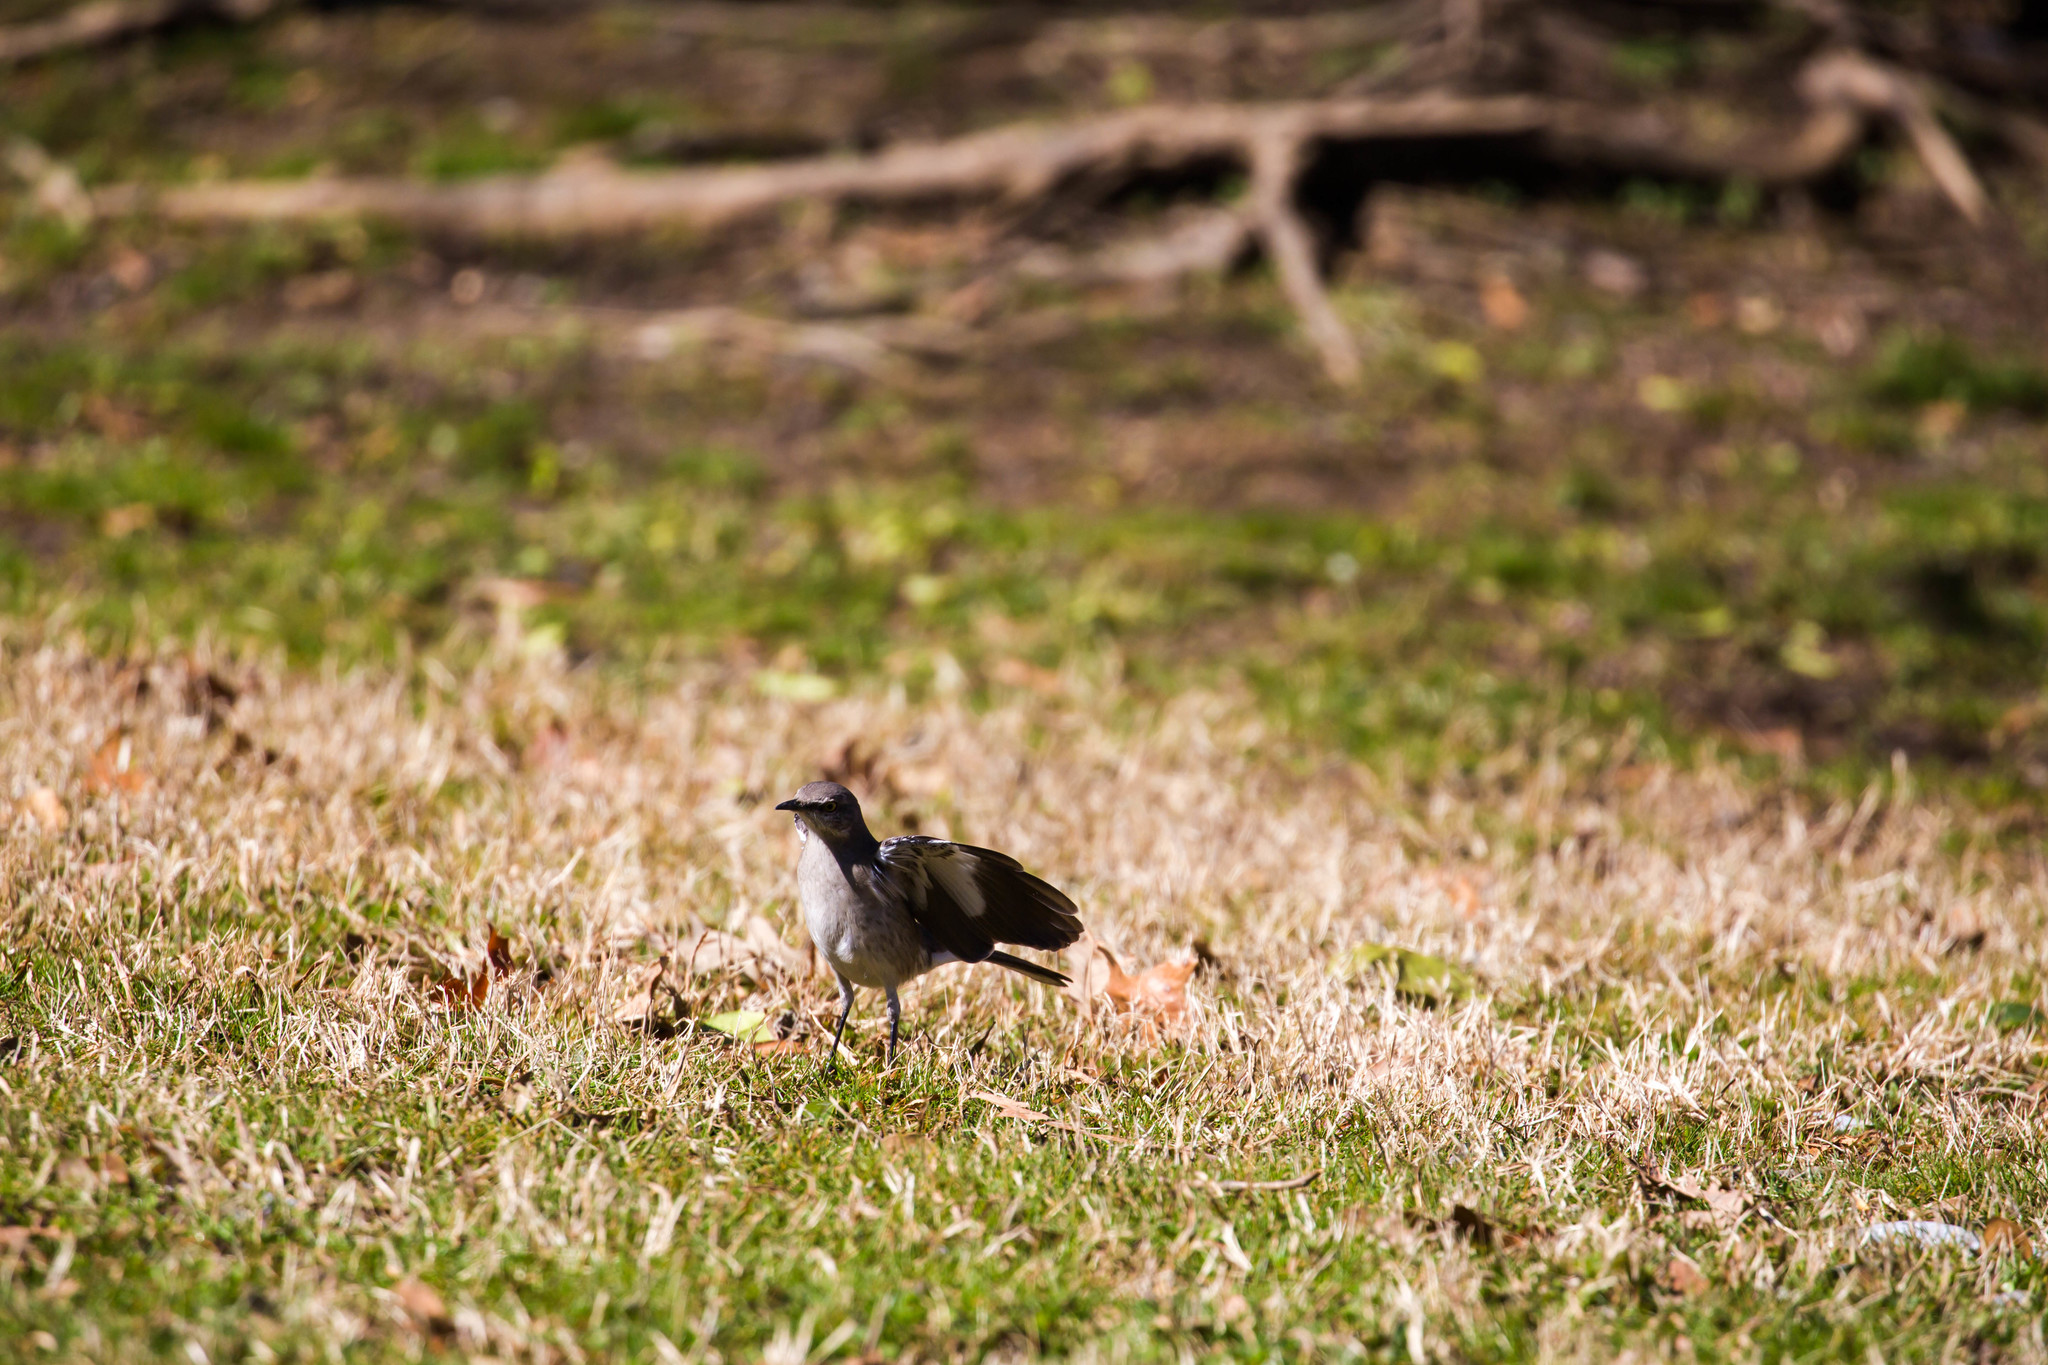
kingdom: Animalia
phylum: Chordata
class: Aves
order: Passeriformes
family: Mimidae
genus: Mimus
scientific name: Mimus polyglottos
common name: Northern mockingbird
